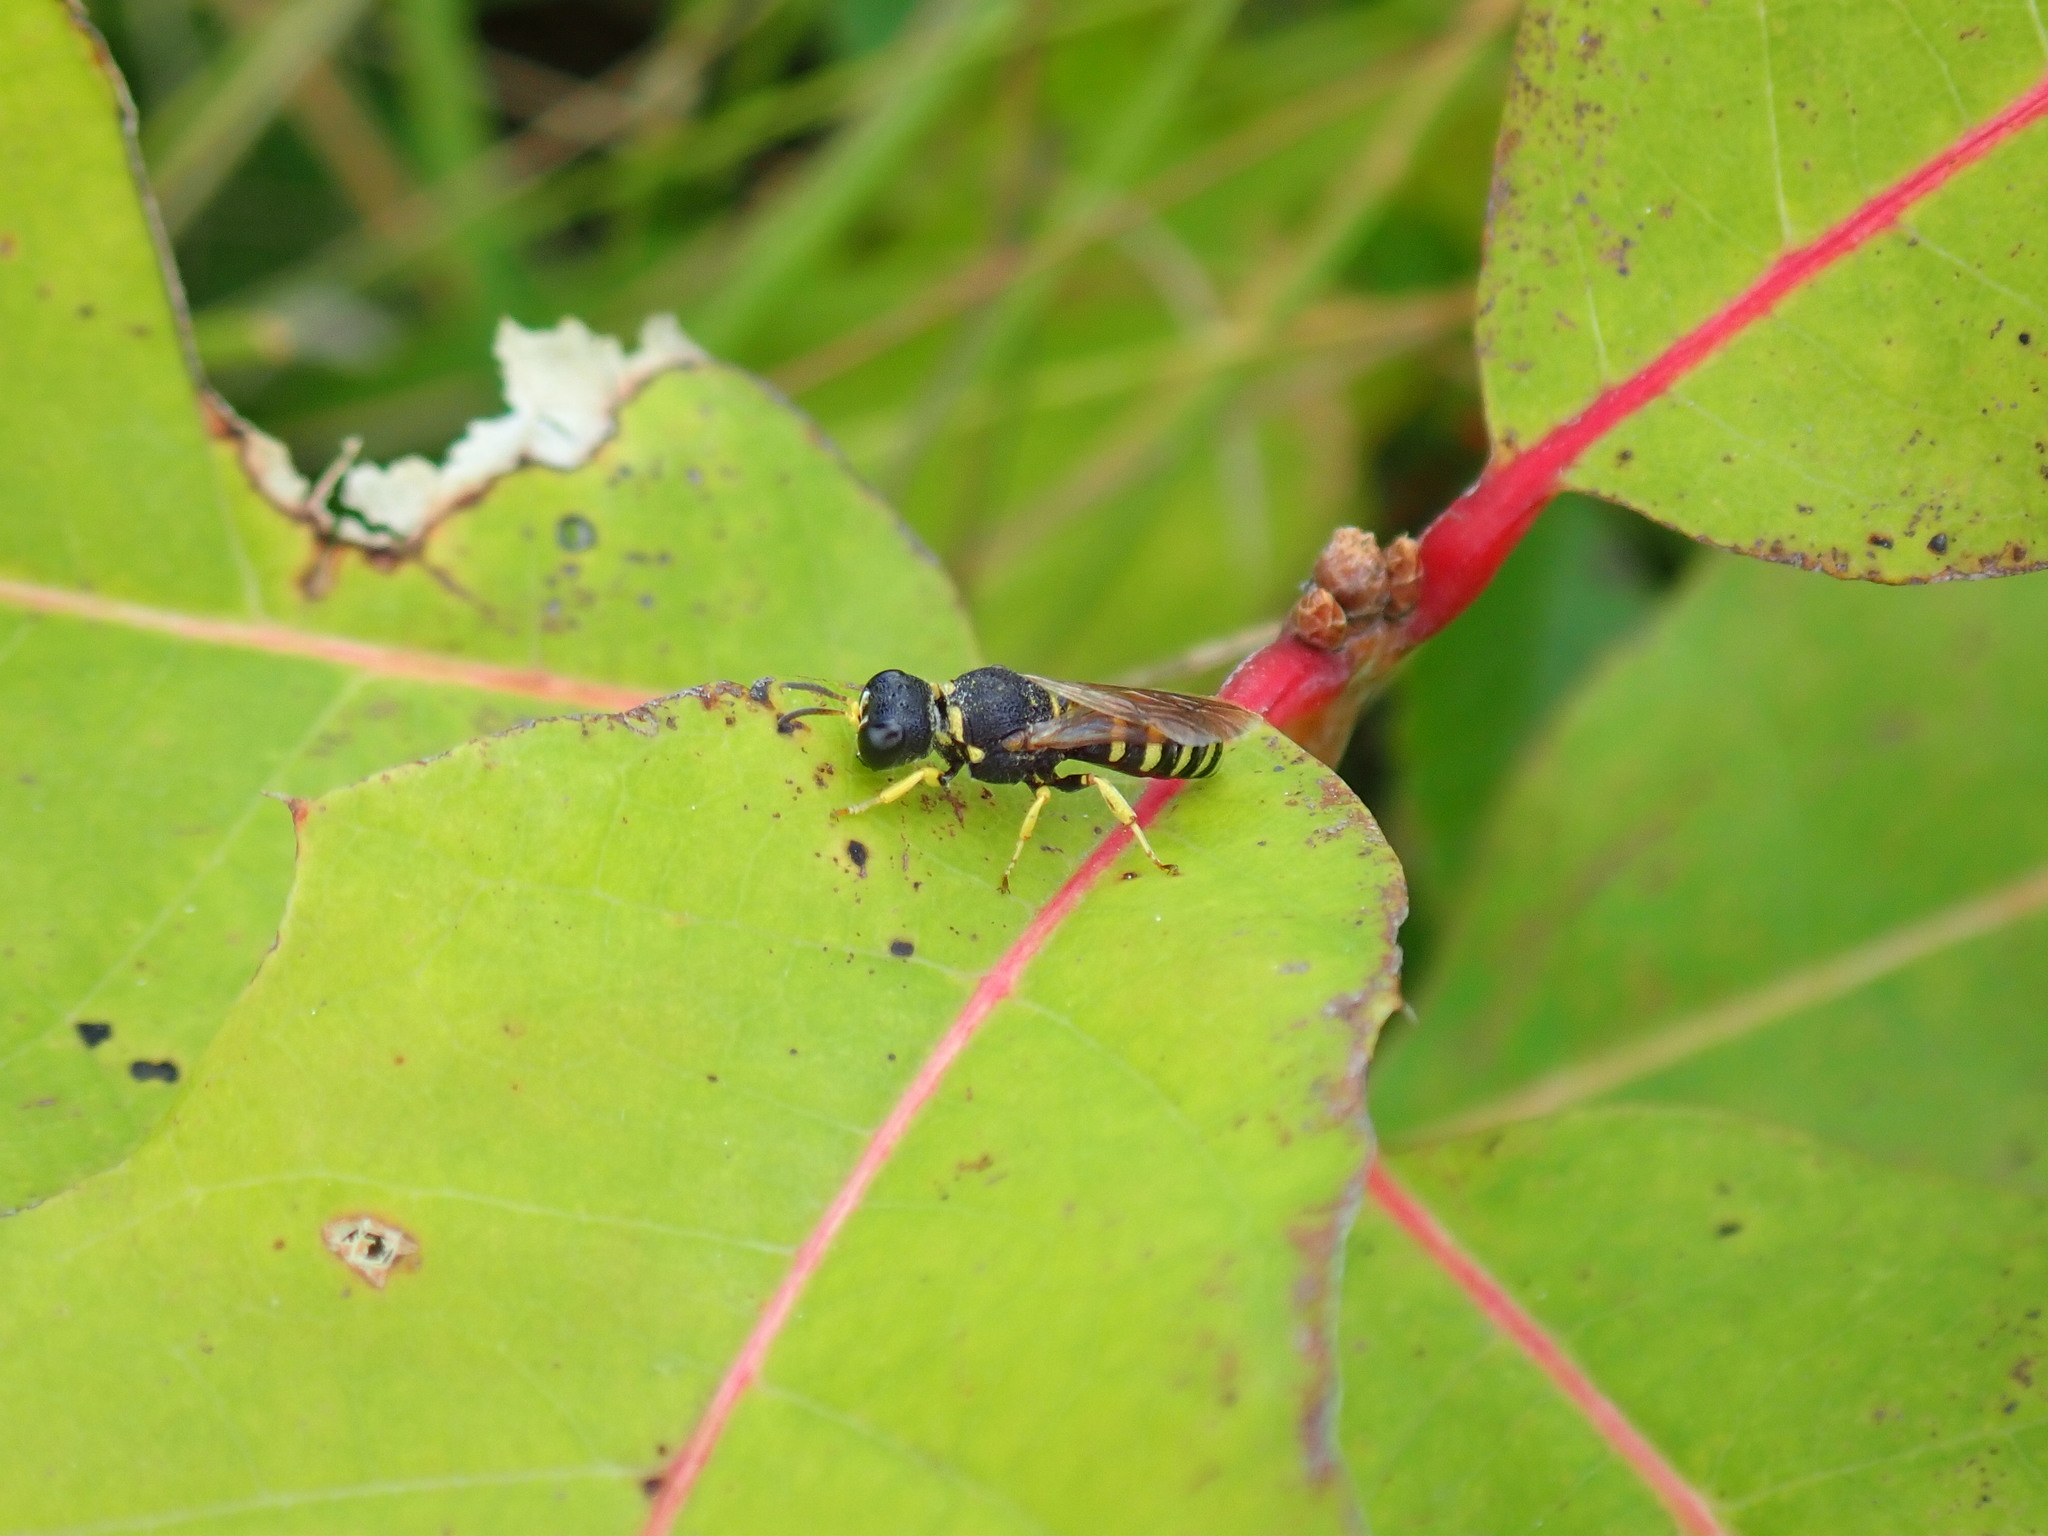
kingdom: Animalia
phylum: Arthropoda
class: Insecta
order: Hymenoptera
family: Crabronidae
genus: Lestica
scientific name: Lestica confluenta
